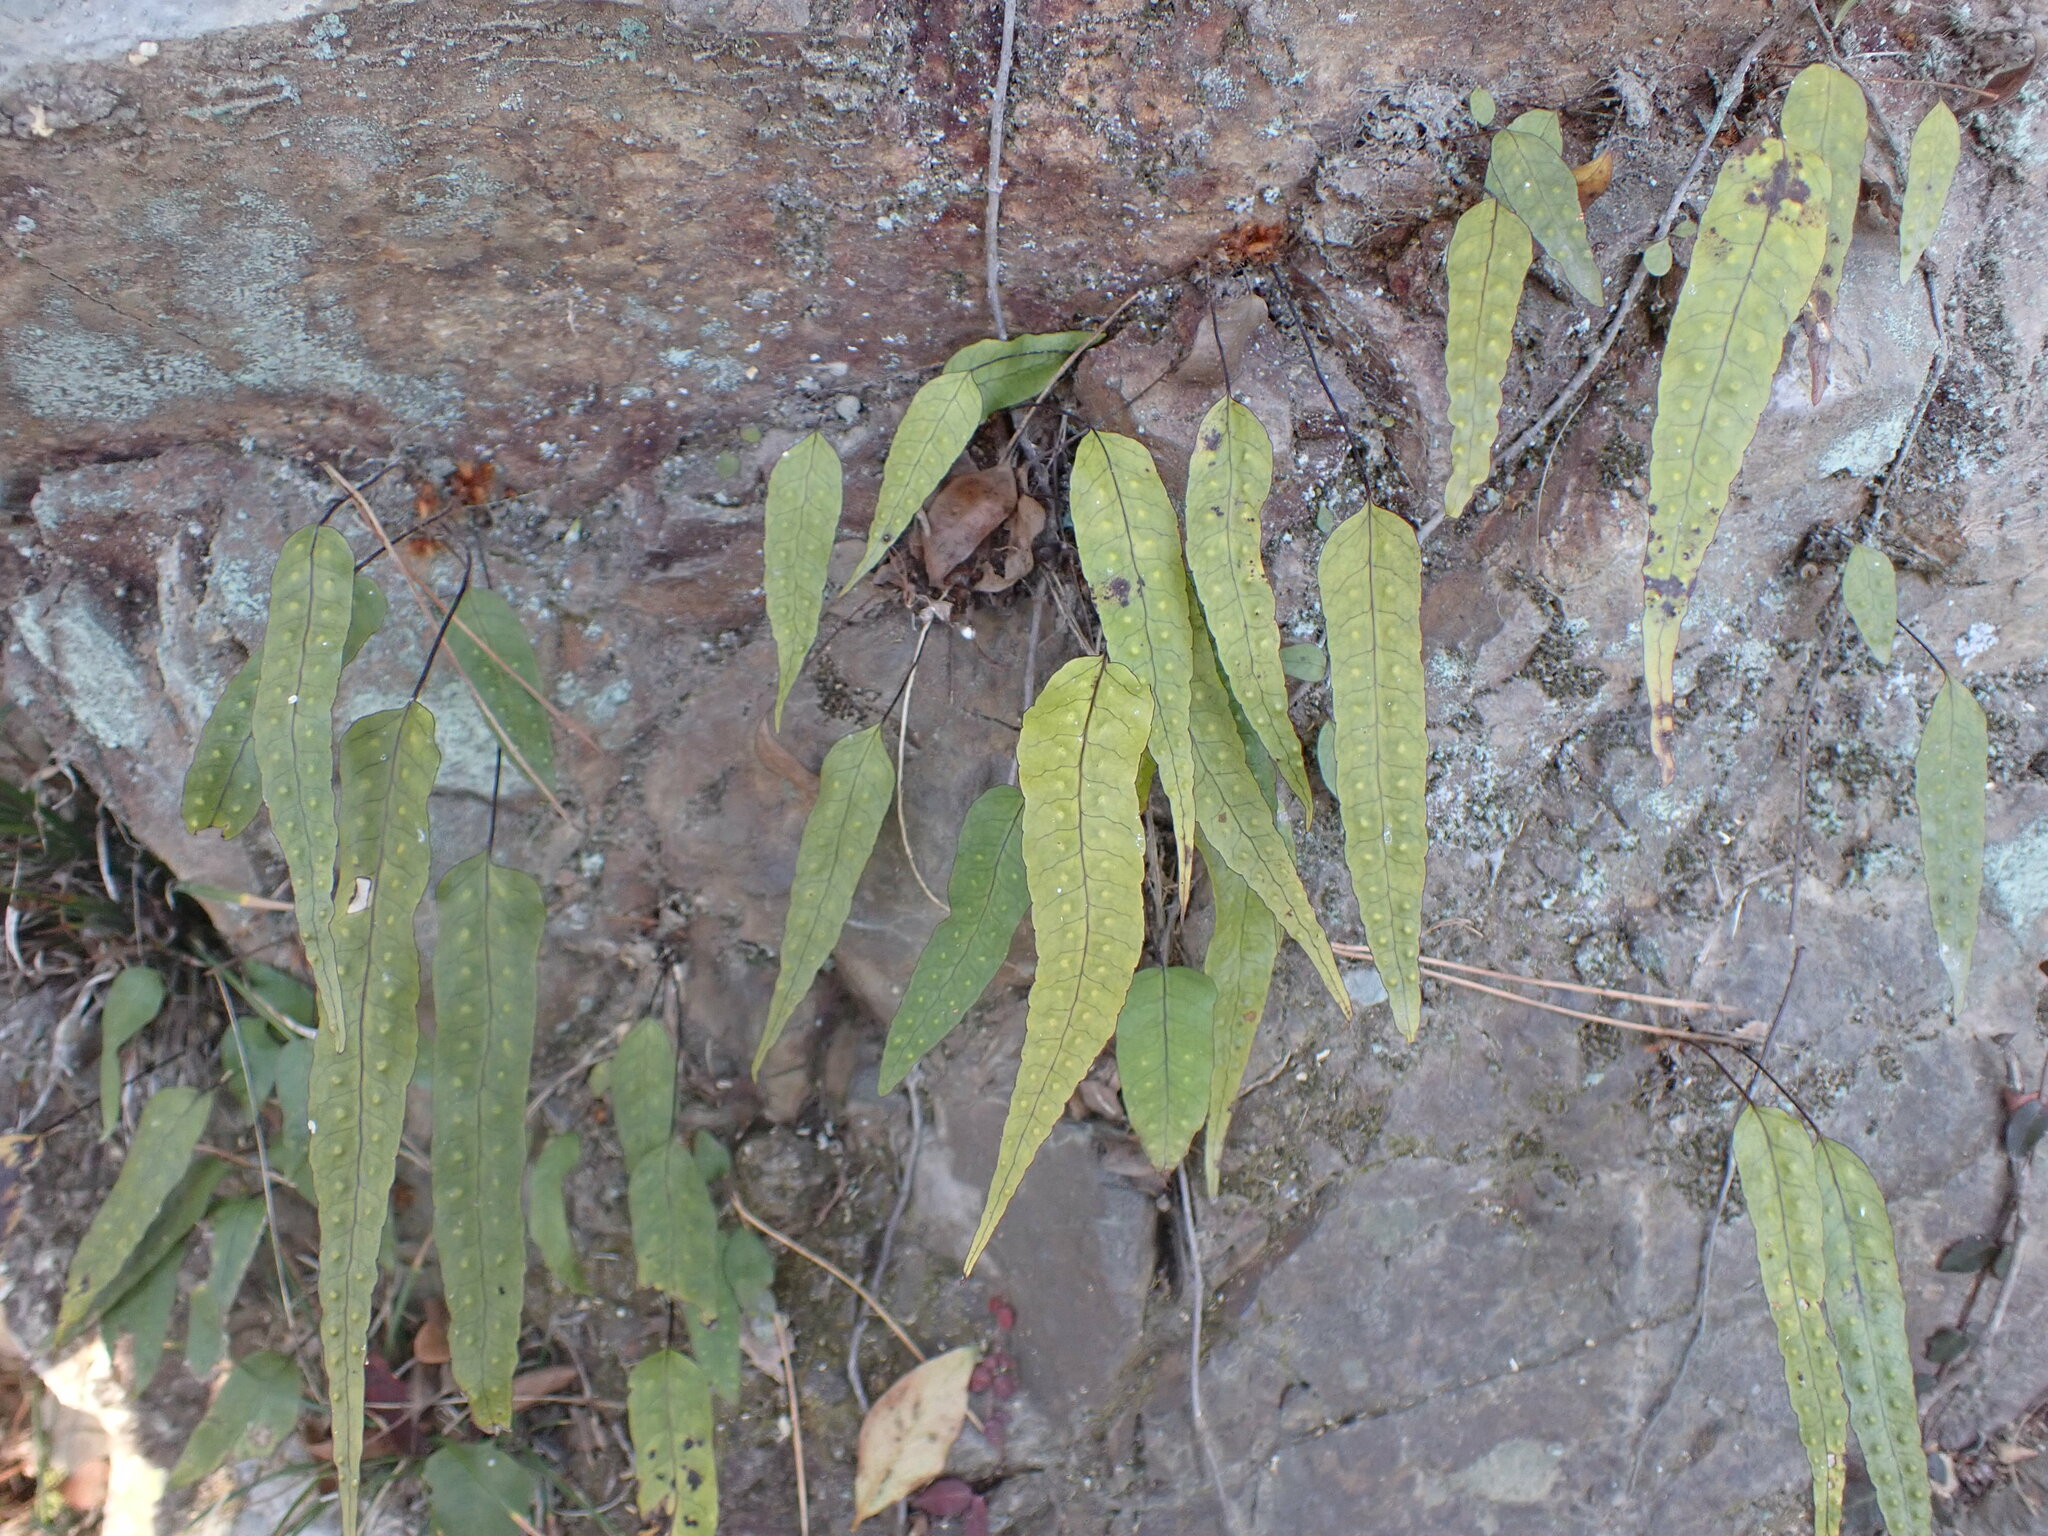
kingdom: Plantae
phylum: Tracheophyta
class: Polypodiopsida
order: Polypodiales
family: Polypodiaceae
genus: Selliguea
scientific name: Selliguea hastata
